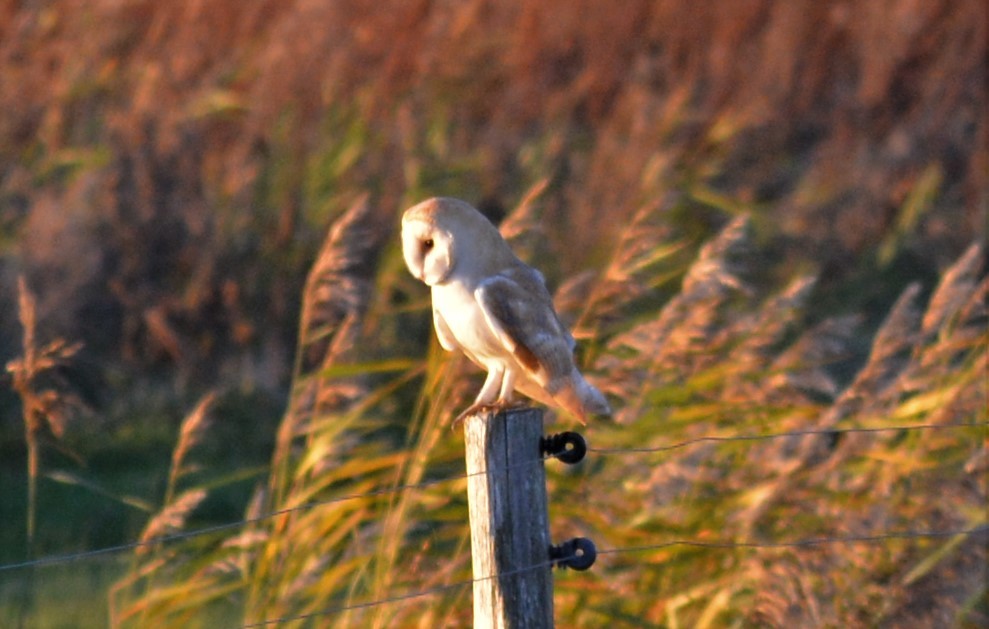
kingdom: Animalia
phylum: Chordata
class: Aves
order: Strigiformes
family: Tytonidae
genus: Tyto
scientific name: Tyto alba
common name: Barn owl
